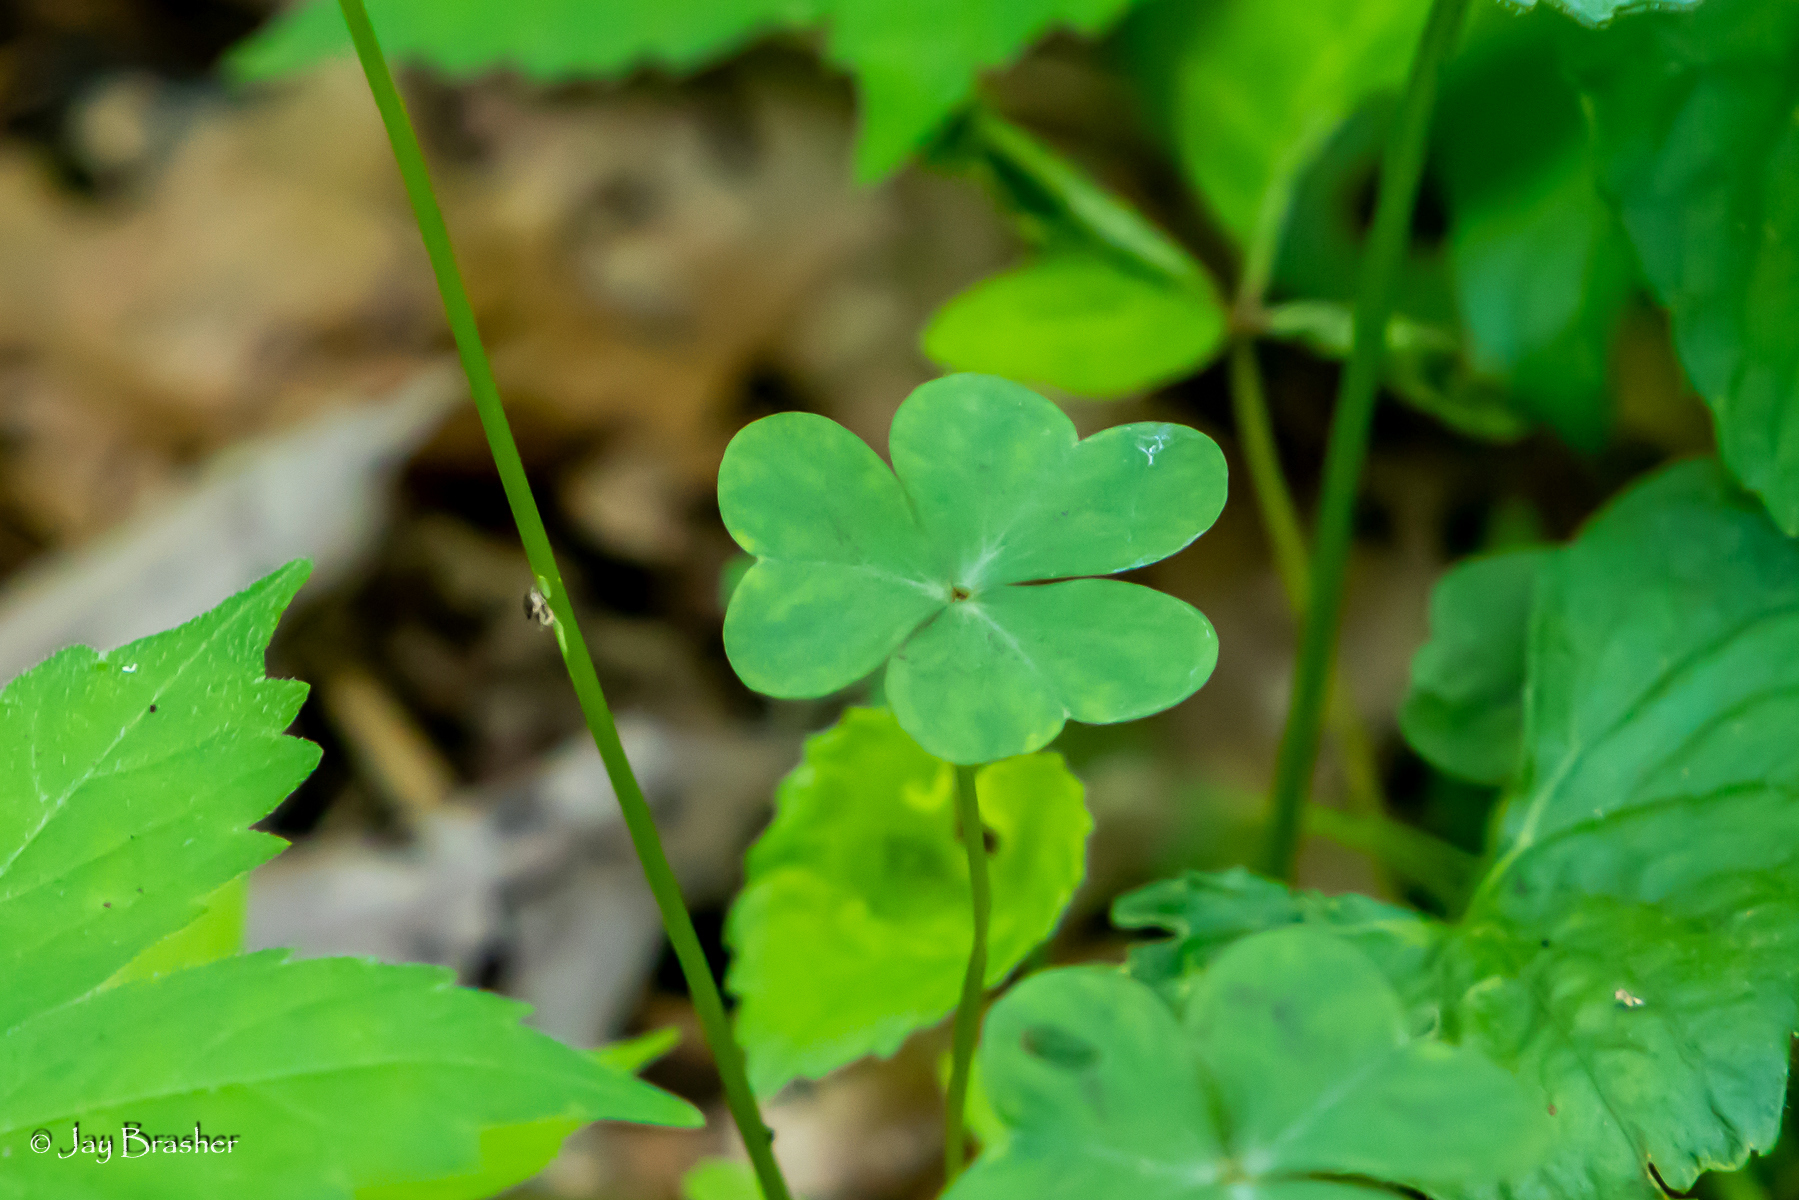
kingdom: Plantae
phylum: Tracheophyta
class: Magnoliopsida
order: Oxalidales
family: Oxalidaceae
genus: Oxalis
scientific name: Oxalis violacea
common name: Violet wood-sorrel
